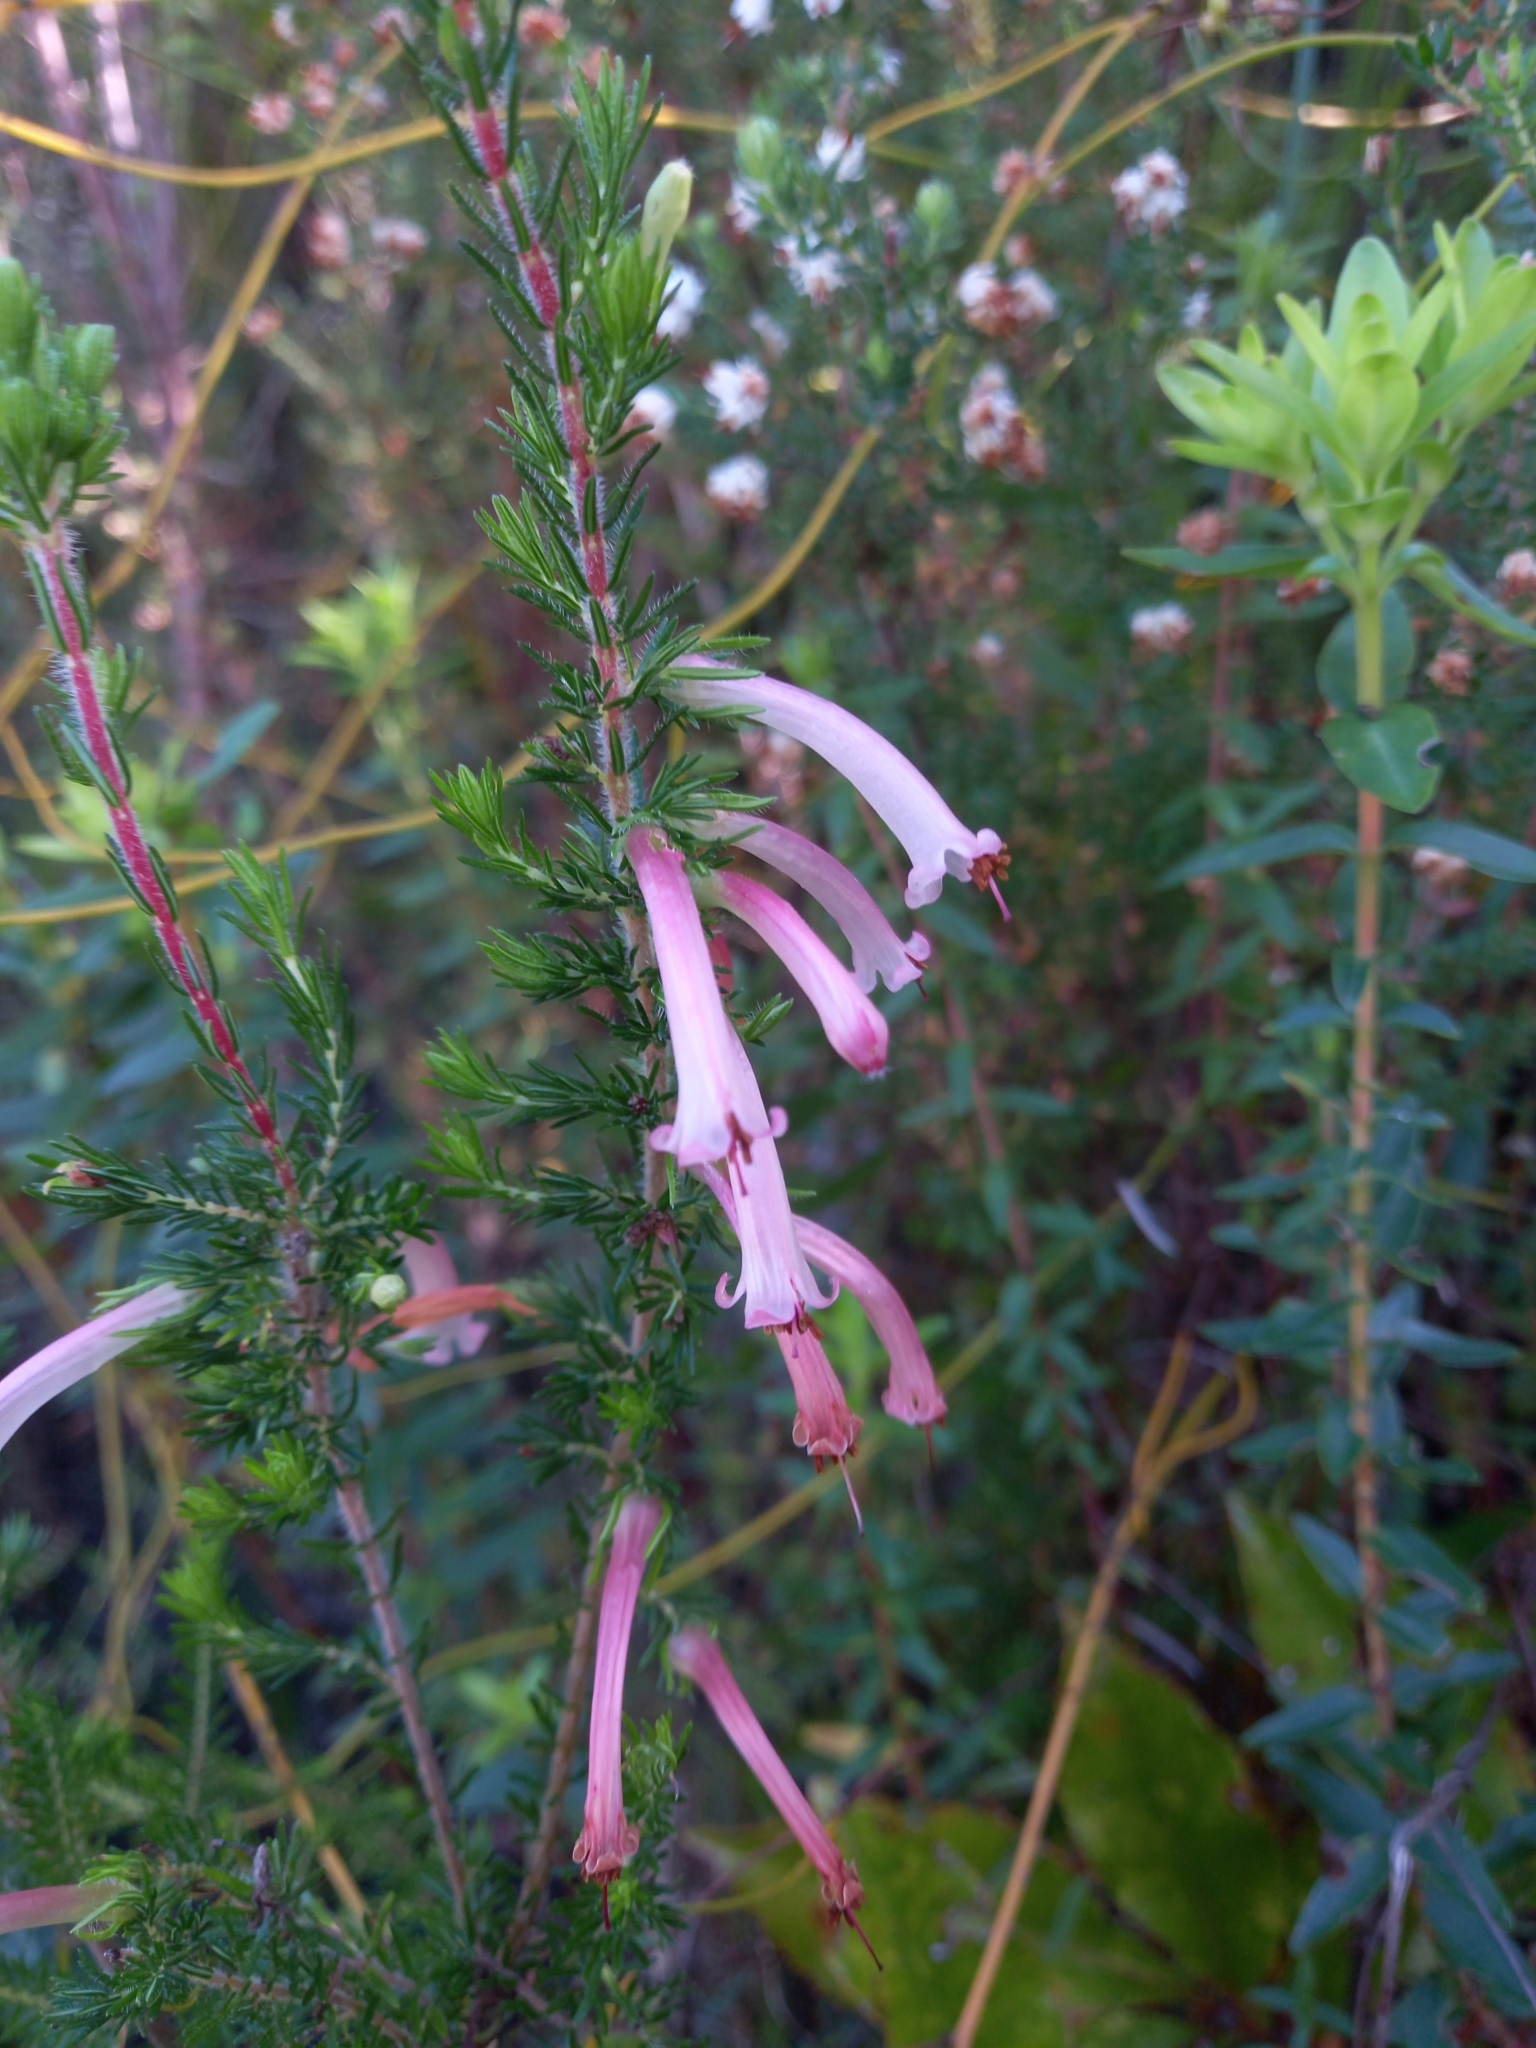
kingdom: Plantae
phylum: Tracheophyta
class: Magnoliopsida
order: Ericales
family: Ericaceae
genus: Erica
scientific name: Erica curviflora
